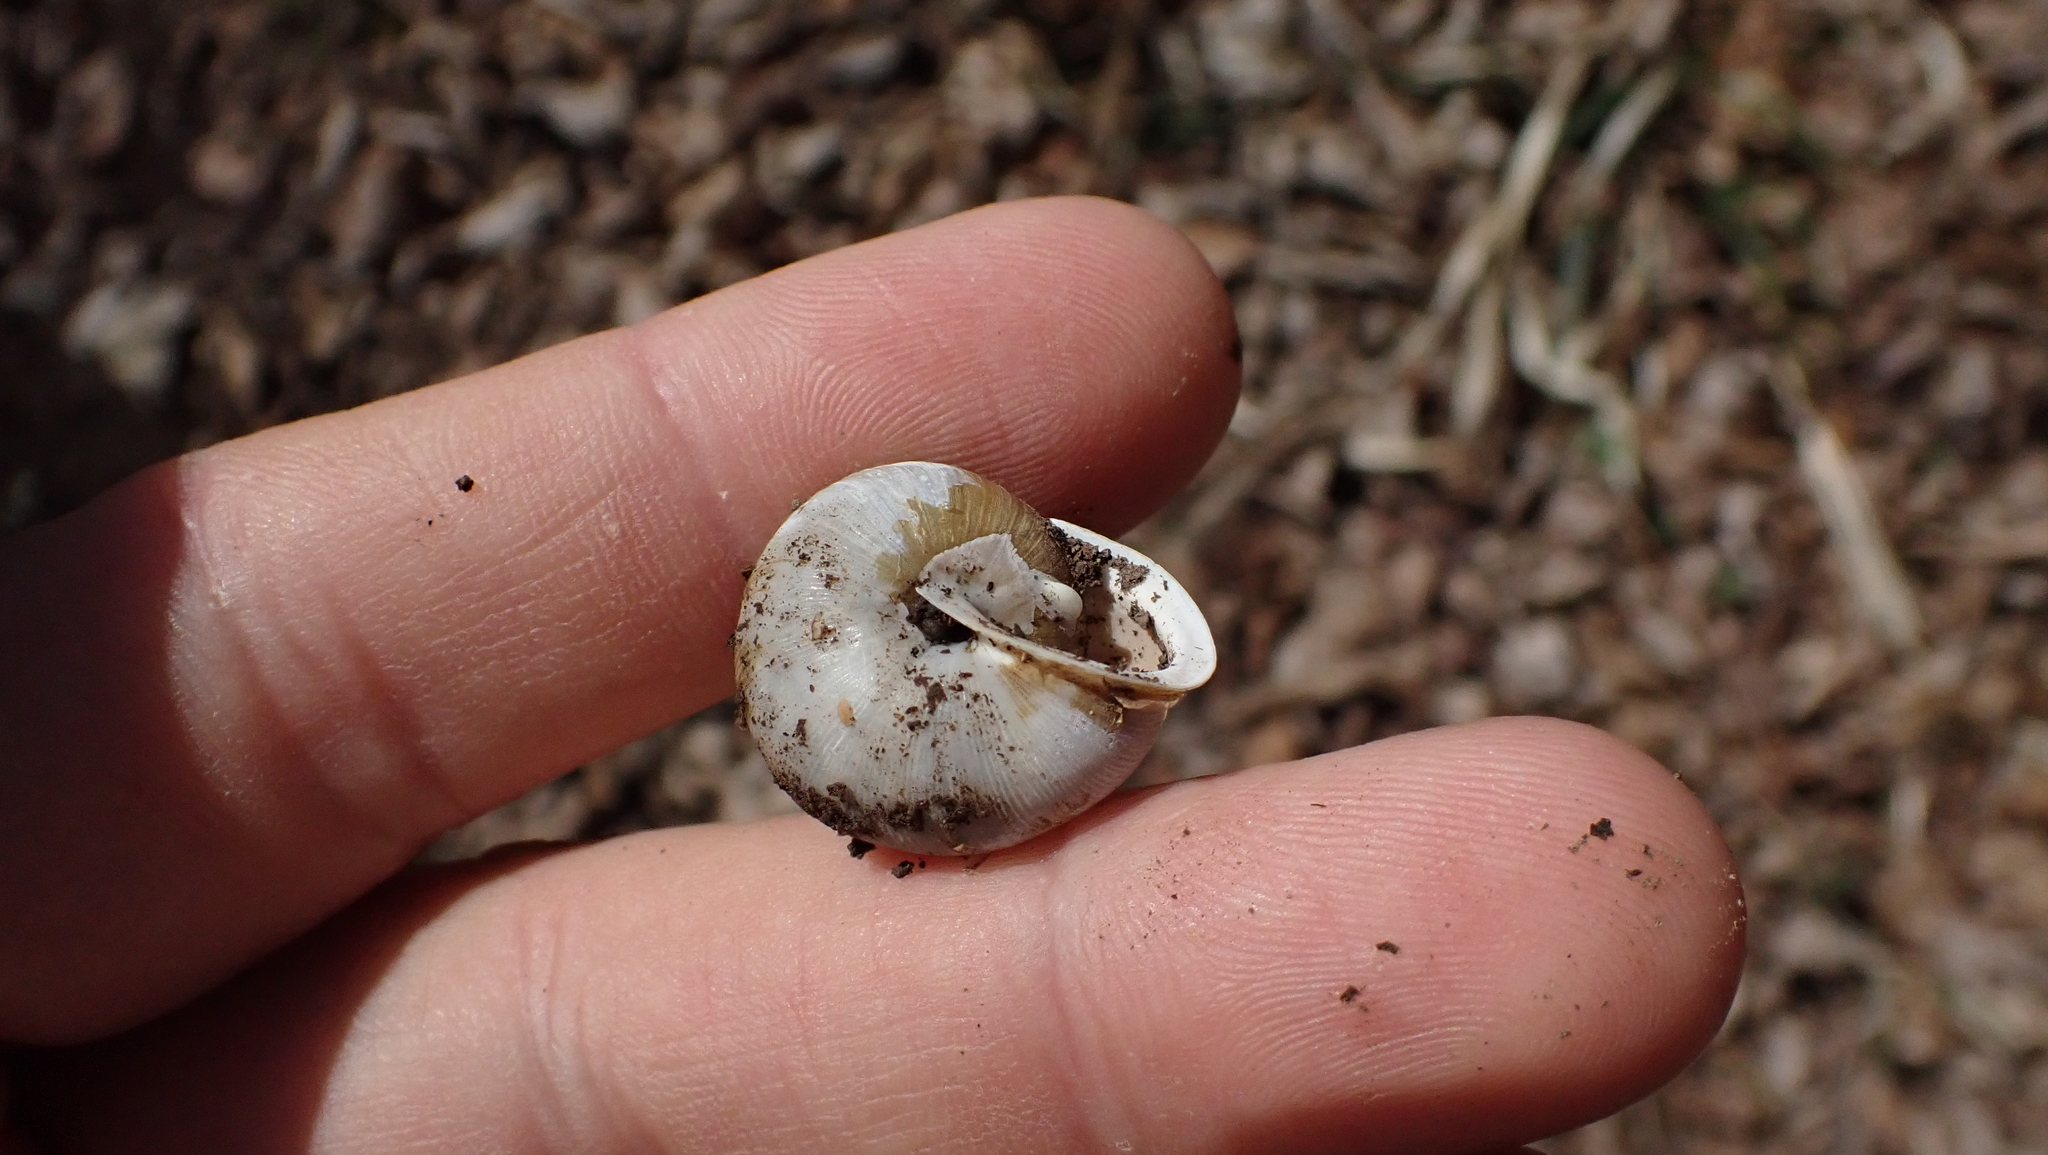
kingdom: Animalia
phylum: Mollusca
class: Gastropoda
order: Stylommatophora
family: Polygyridae
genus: Mesodon
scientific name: Mesodon thyroidus
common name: White-lip globe
